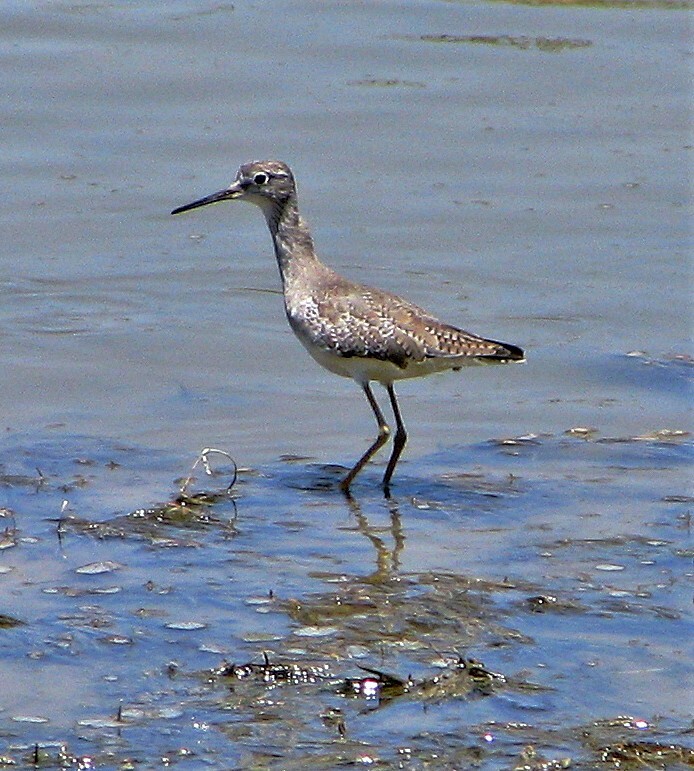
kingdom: Animalia
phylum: Chordata
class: Aves
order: Charadriiformes
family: Scolopacidae
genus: Tringa
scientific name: Tringa flavipes
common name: Lesser yellowlegs
